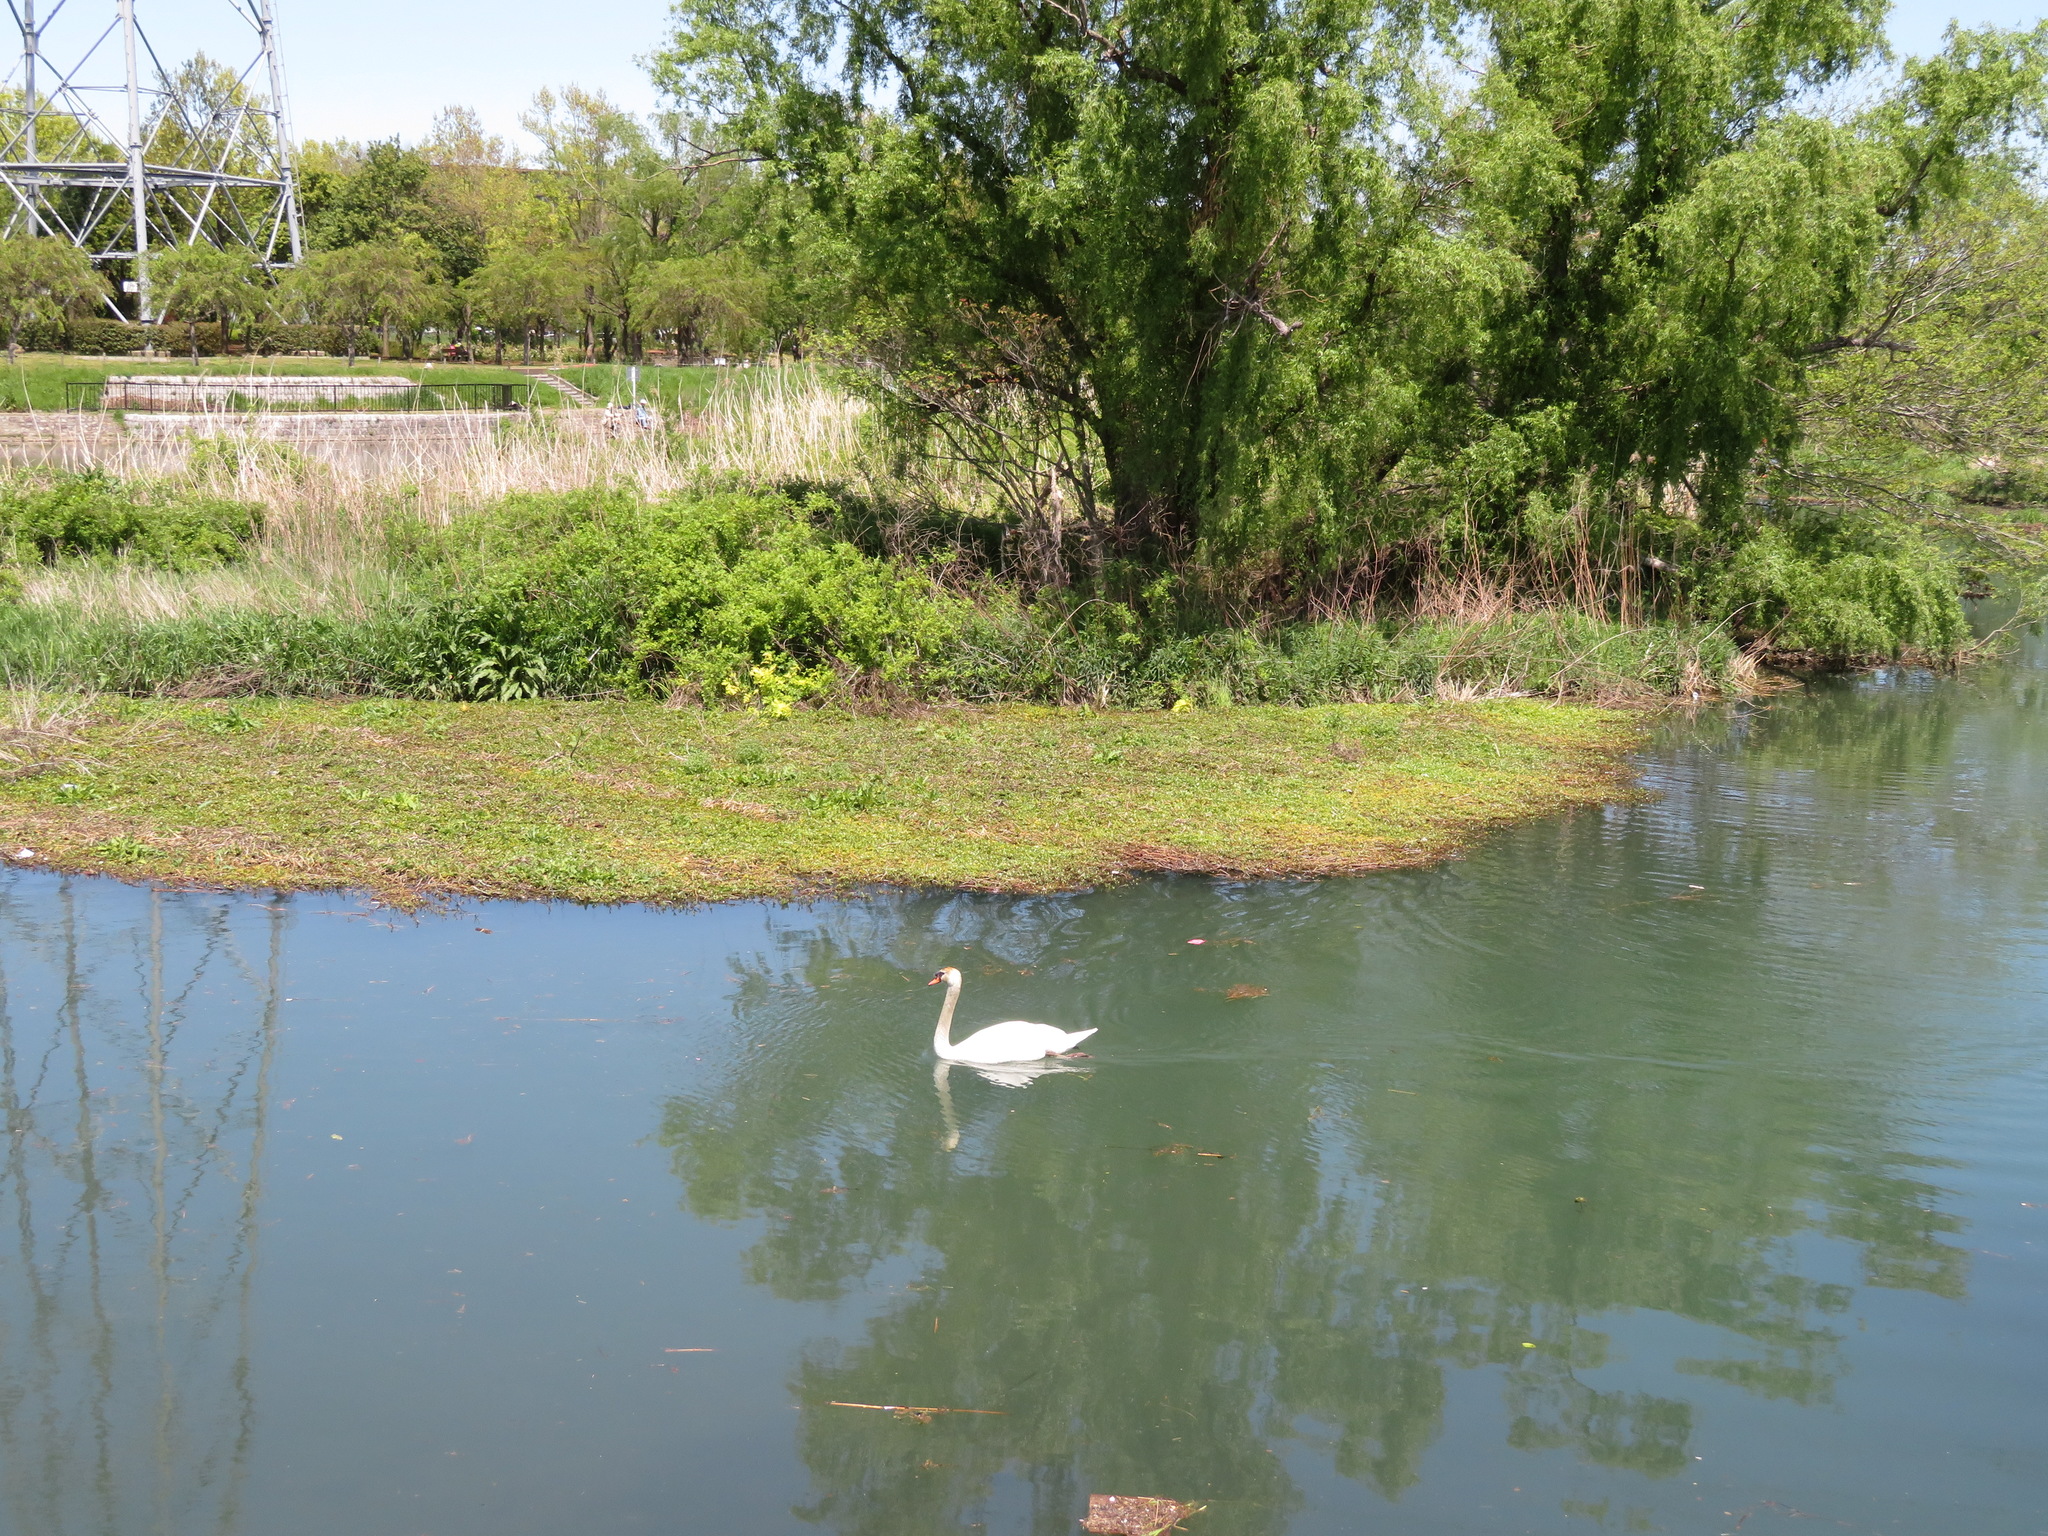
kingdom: Animalia
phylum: Chordata
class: Aves
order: Anseriformes
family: Anatidae
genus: Cygnus
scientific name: Cygnus olor
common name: Mute swan
